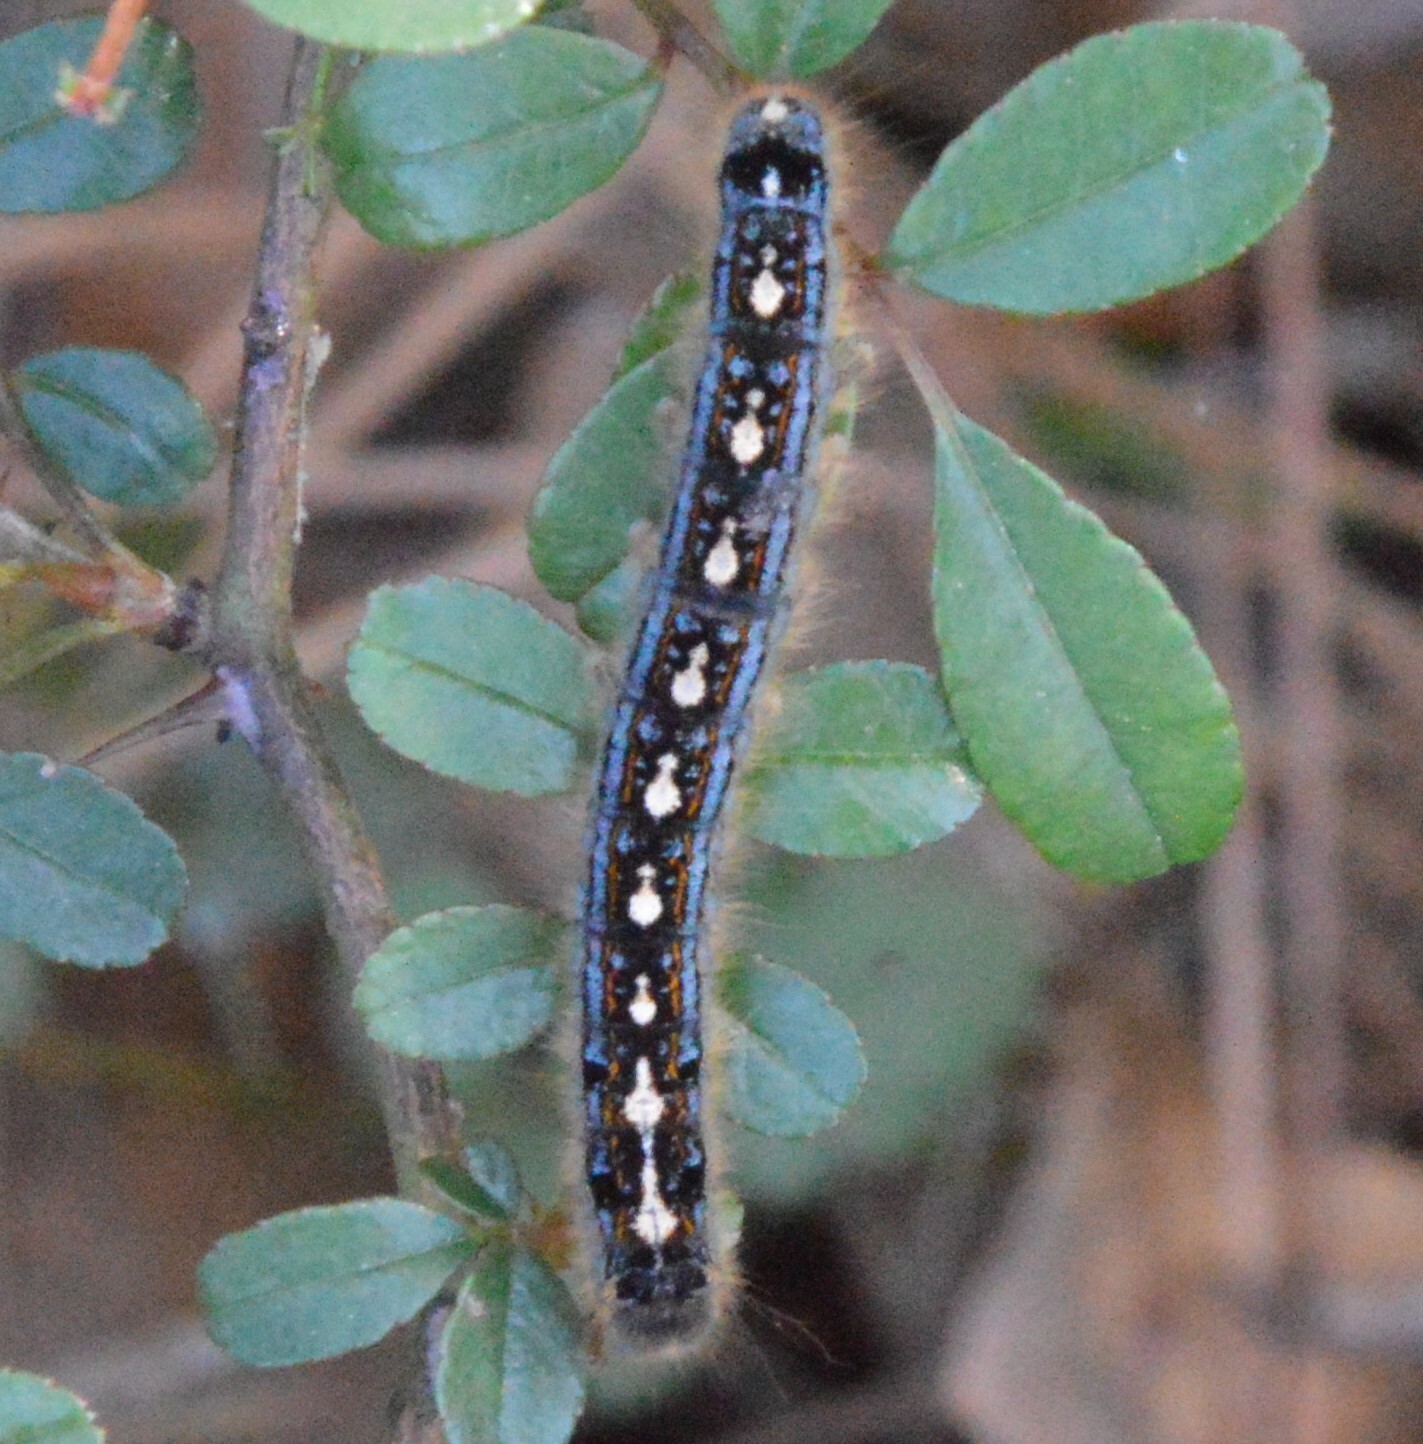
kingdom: Animalia
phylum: Arthropoda
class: Insecta
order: Lepidoptera
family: Lasiocampidae
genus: Malacosoma
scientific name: Malacosoma disstria
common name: Forest tent caterpillar
